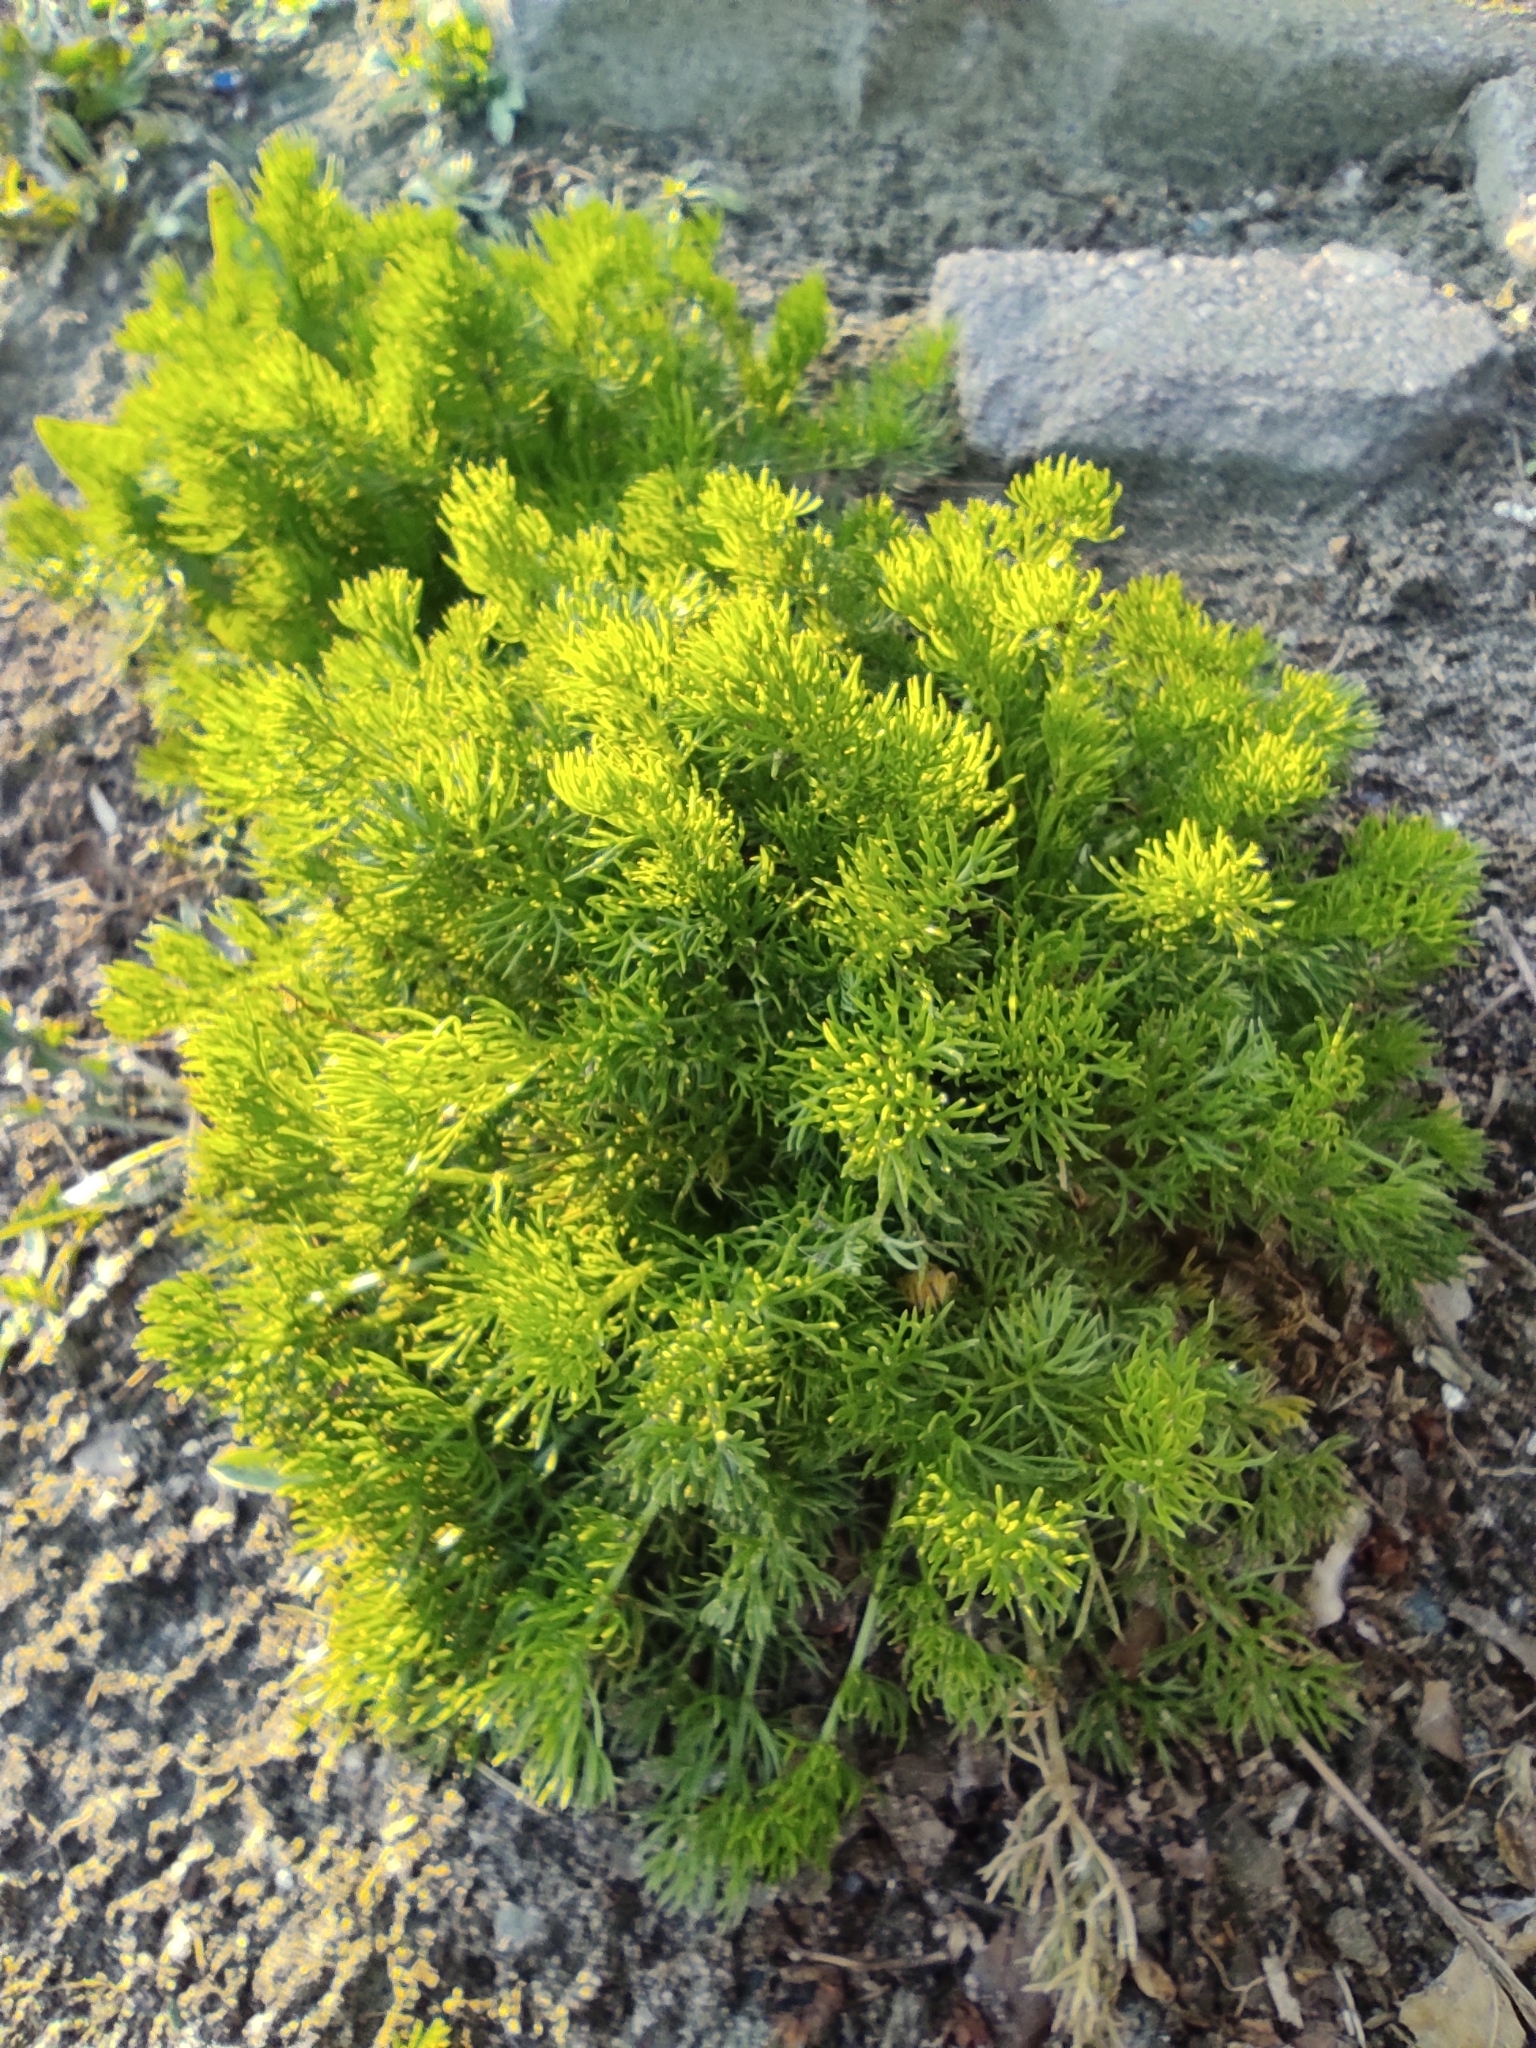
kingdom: Plantae
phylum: Tracheophyta
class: Magnoliopsida
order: Asterales
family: Asteraceae
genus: Tripleurospermum
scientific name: Tripleurospermum inodorum
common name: Scentless mayweed
